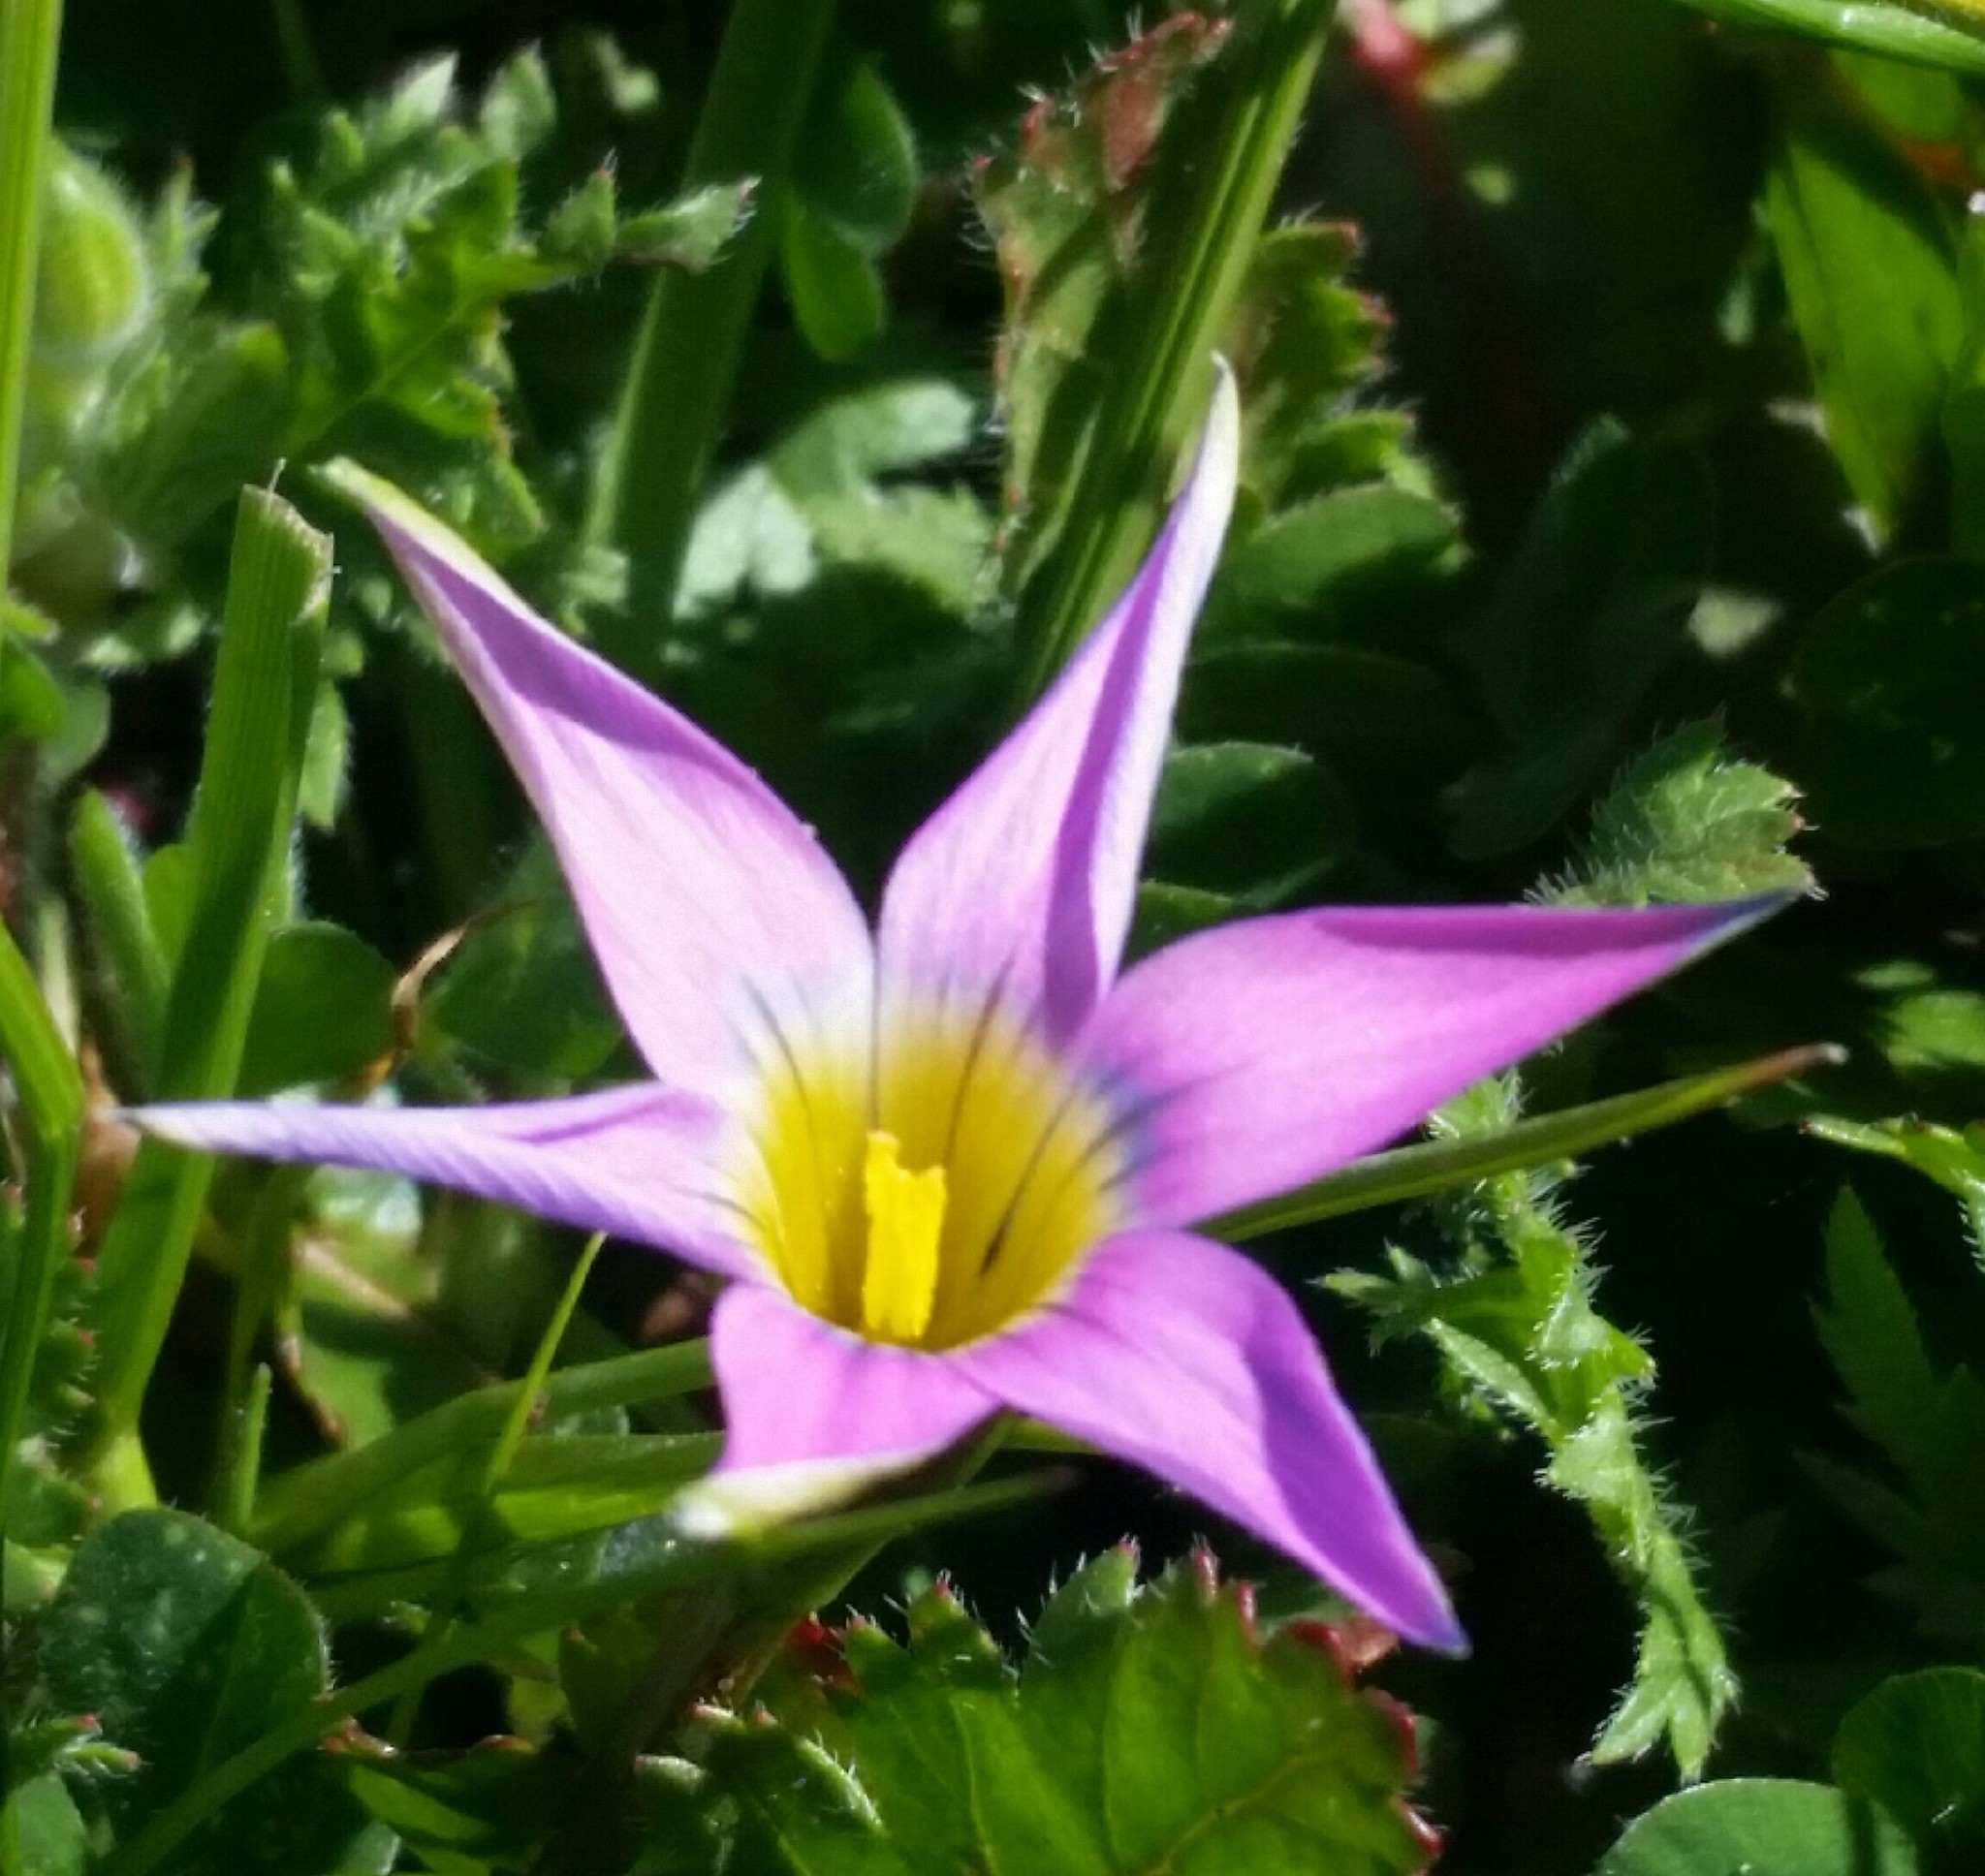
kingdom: Plantae
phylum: Tracheophyta
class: Liliopsida
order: Asparagales
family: Iridaceae
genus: Romulea
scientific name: Romulea rosea
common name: Oniongrass
